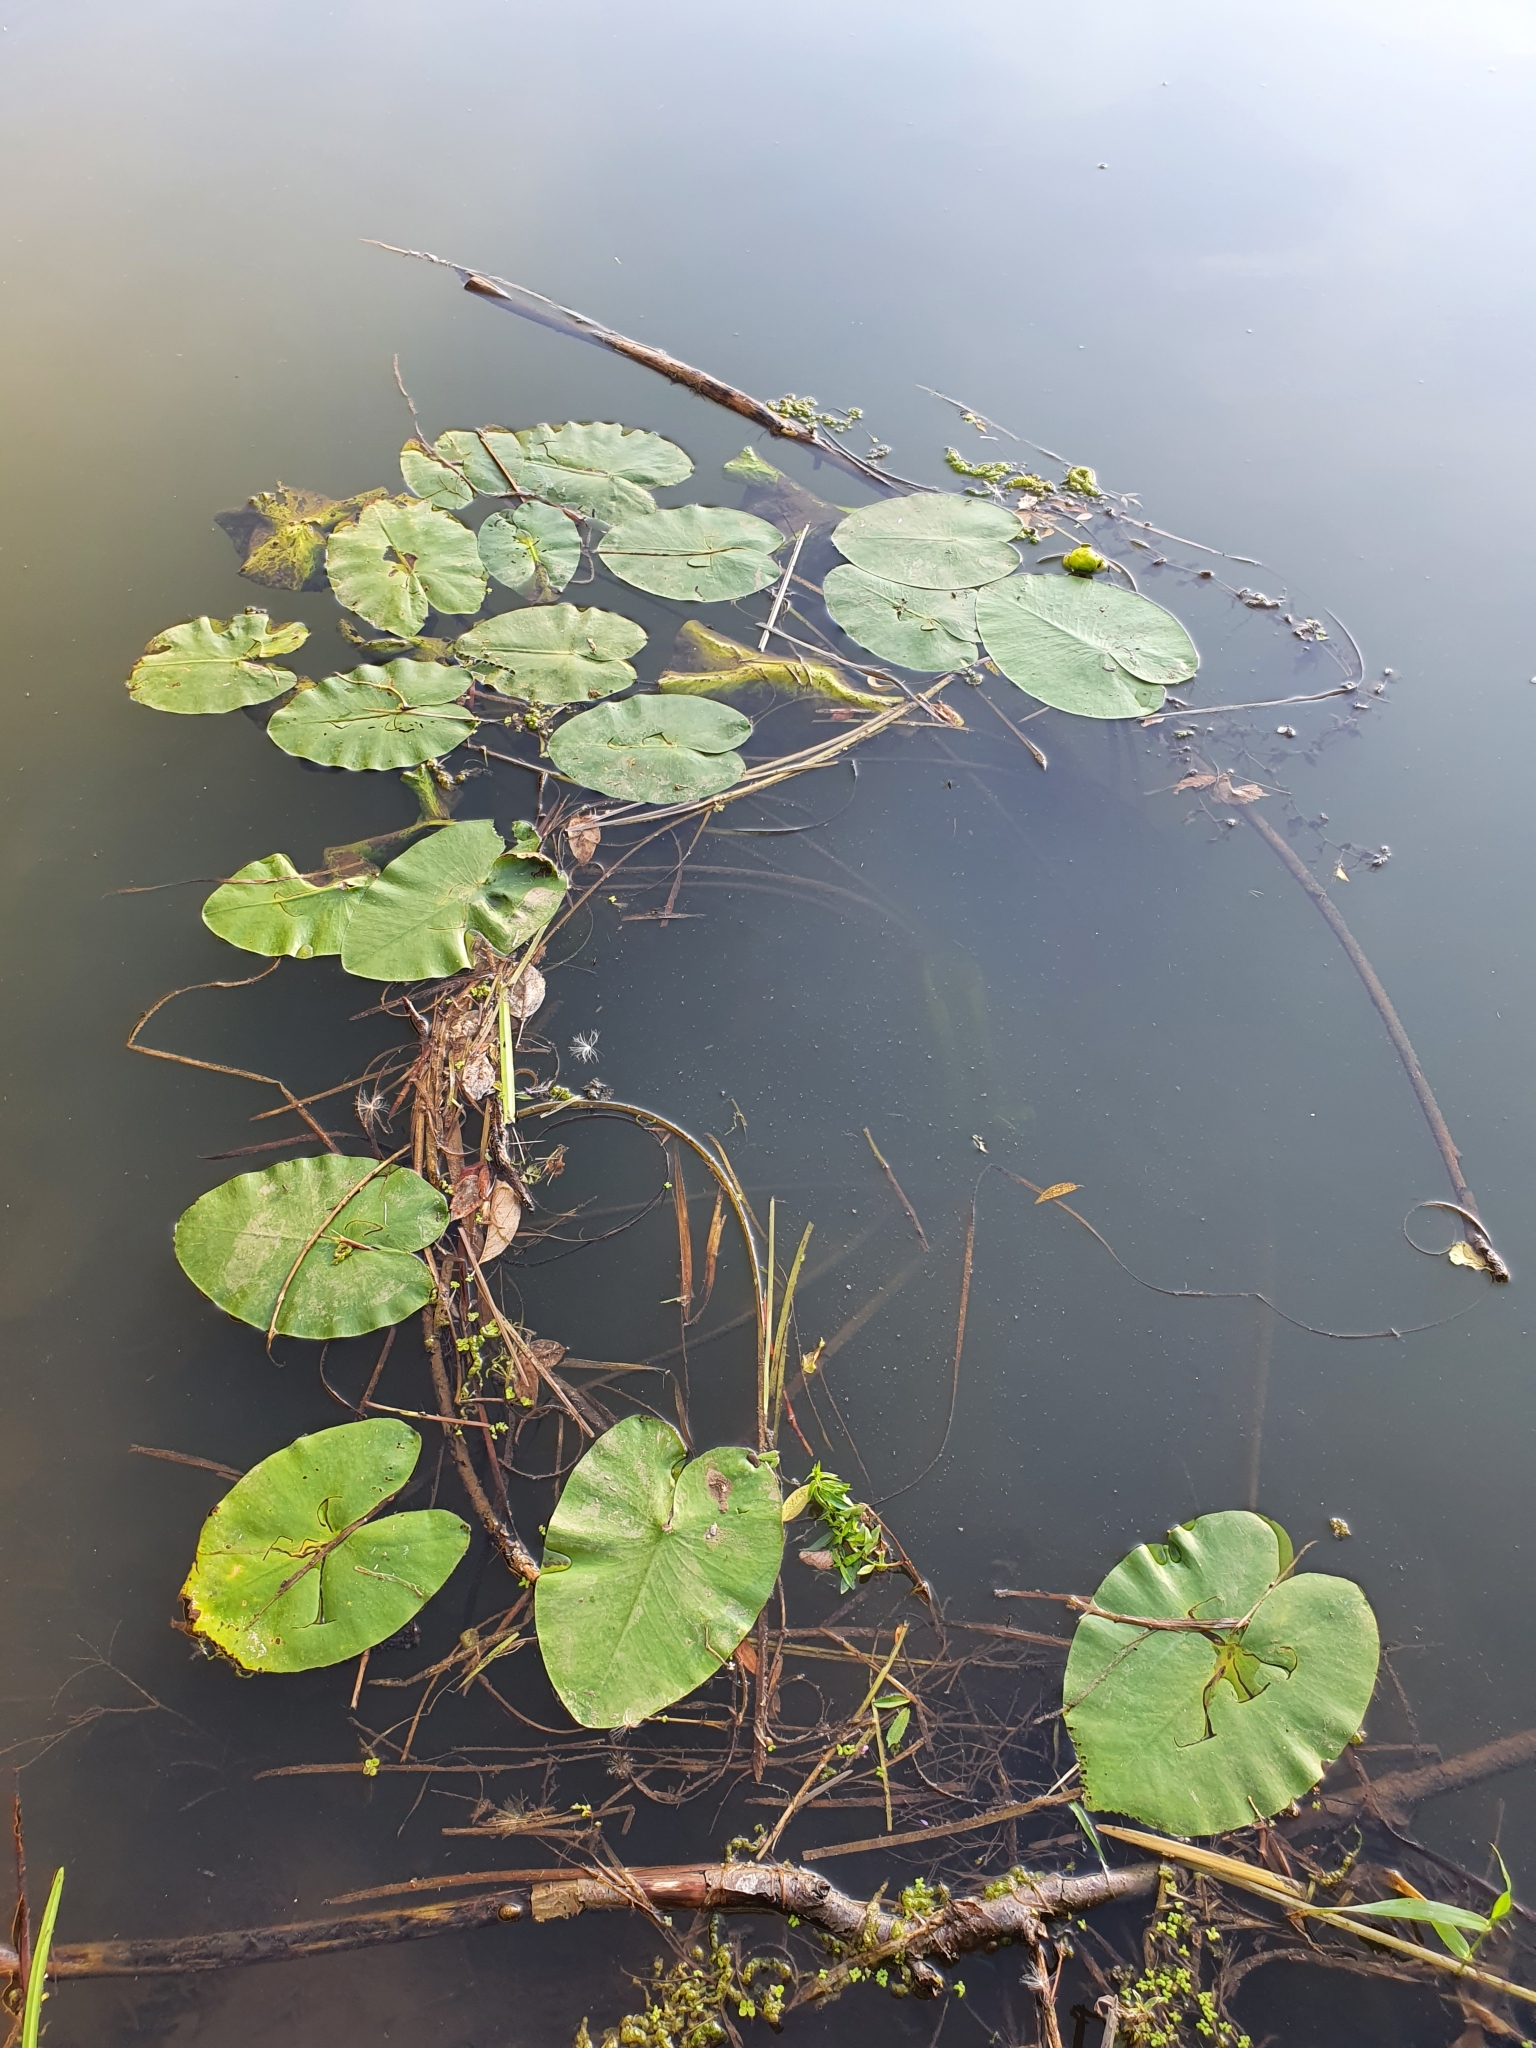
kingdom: Plantae
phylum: Tracheophyta
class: Magnoliopsida
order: Nymphaeales
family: Nymphaeaceae
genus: Nuphar
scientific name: Nuphar lutea
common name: Yellow water-lily
